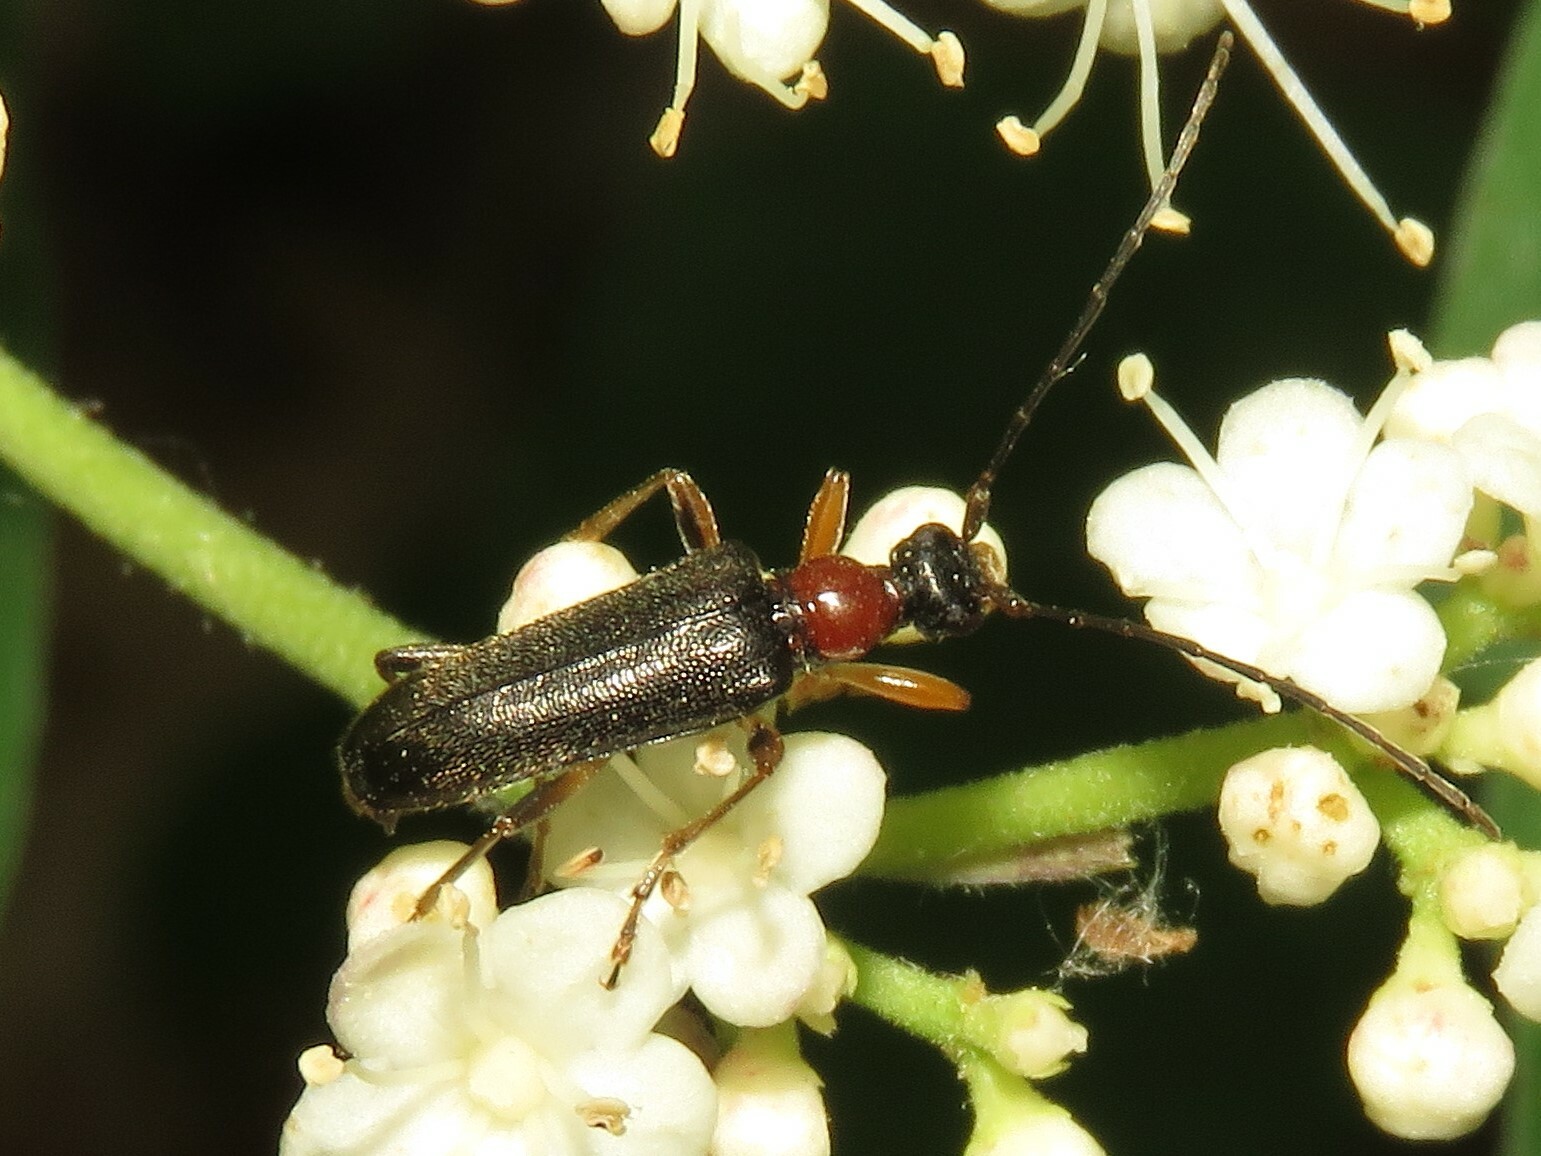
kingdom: Animalia
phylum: Arthropoda
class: Insecta
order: Coleoptera
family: Cerambycidae
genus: Pidonia
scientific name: Pidonia ruficollis
